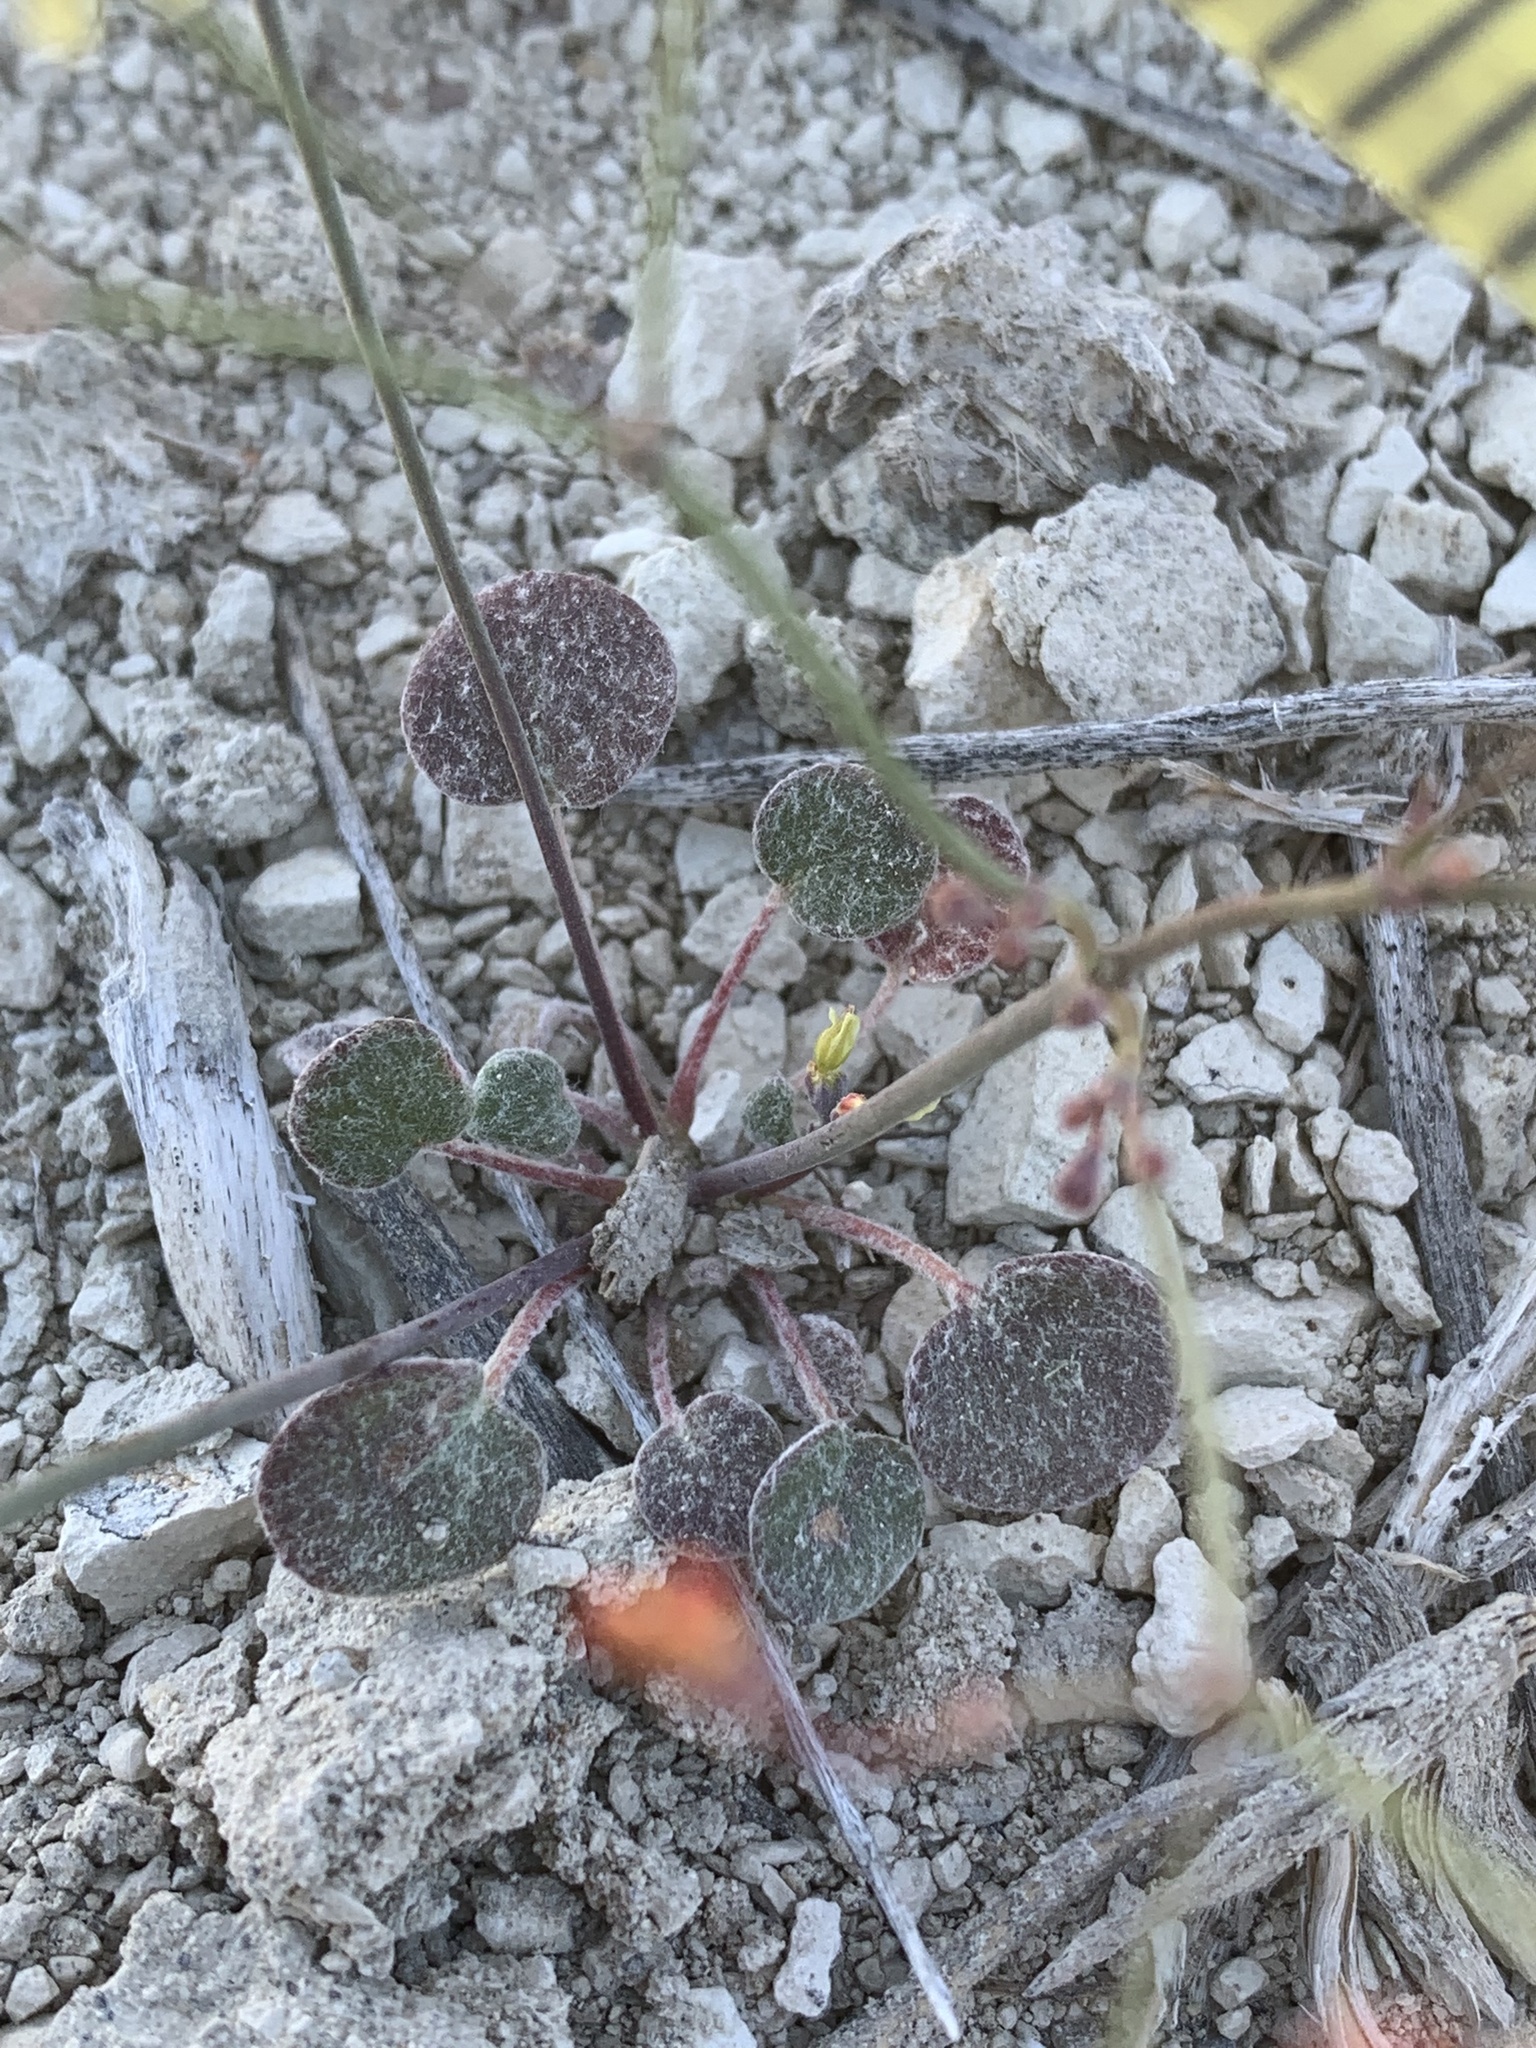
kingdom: Plantae
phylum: Tracheophyta
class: Magnoliopsida
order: Caryophyllales
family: Polygonaceae
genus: Eriogonum
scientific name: Eriogonum collinum
